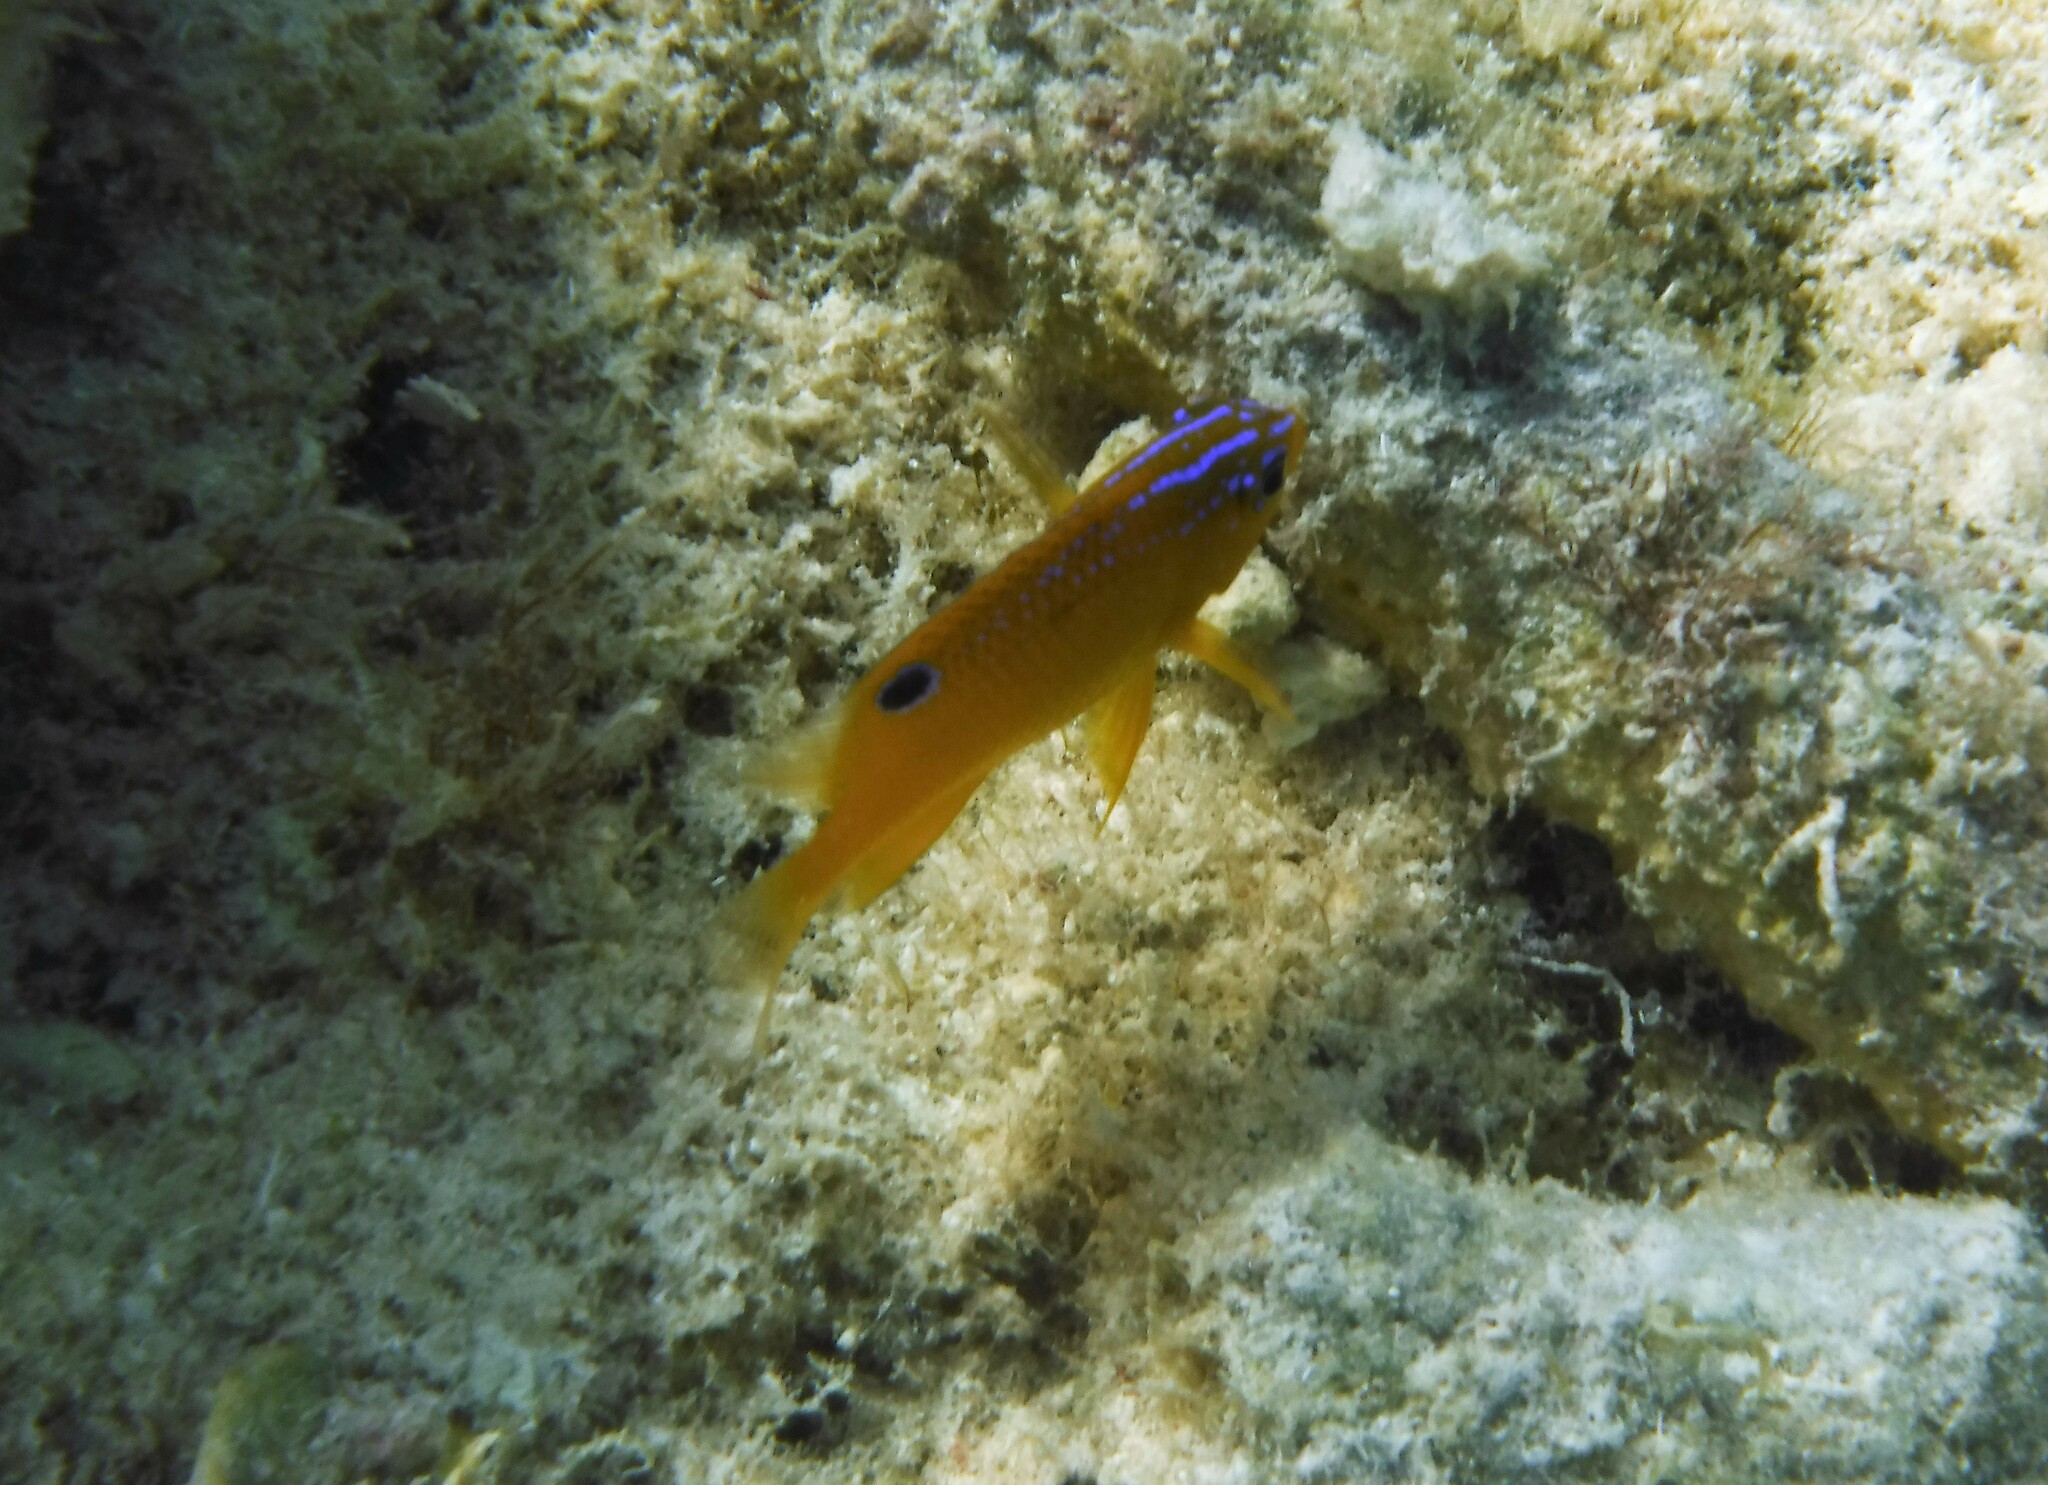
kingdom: Animalia
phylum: Chordata
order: Perciformes
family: Pomacentridae
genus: Stegastes
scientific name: Stegastes diencaeus
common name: Longfin damselfish
